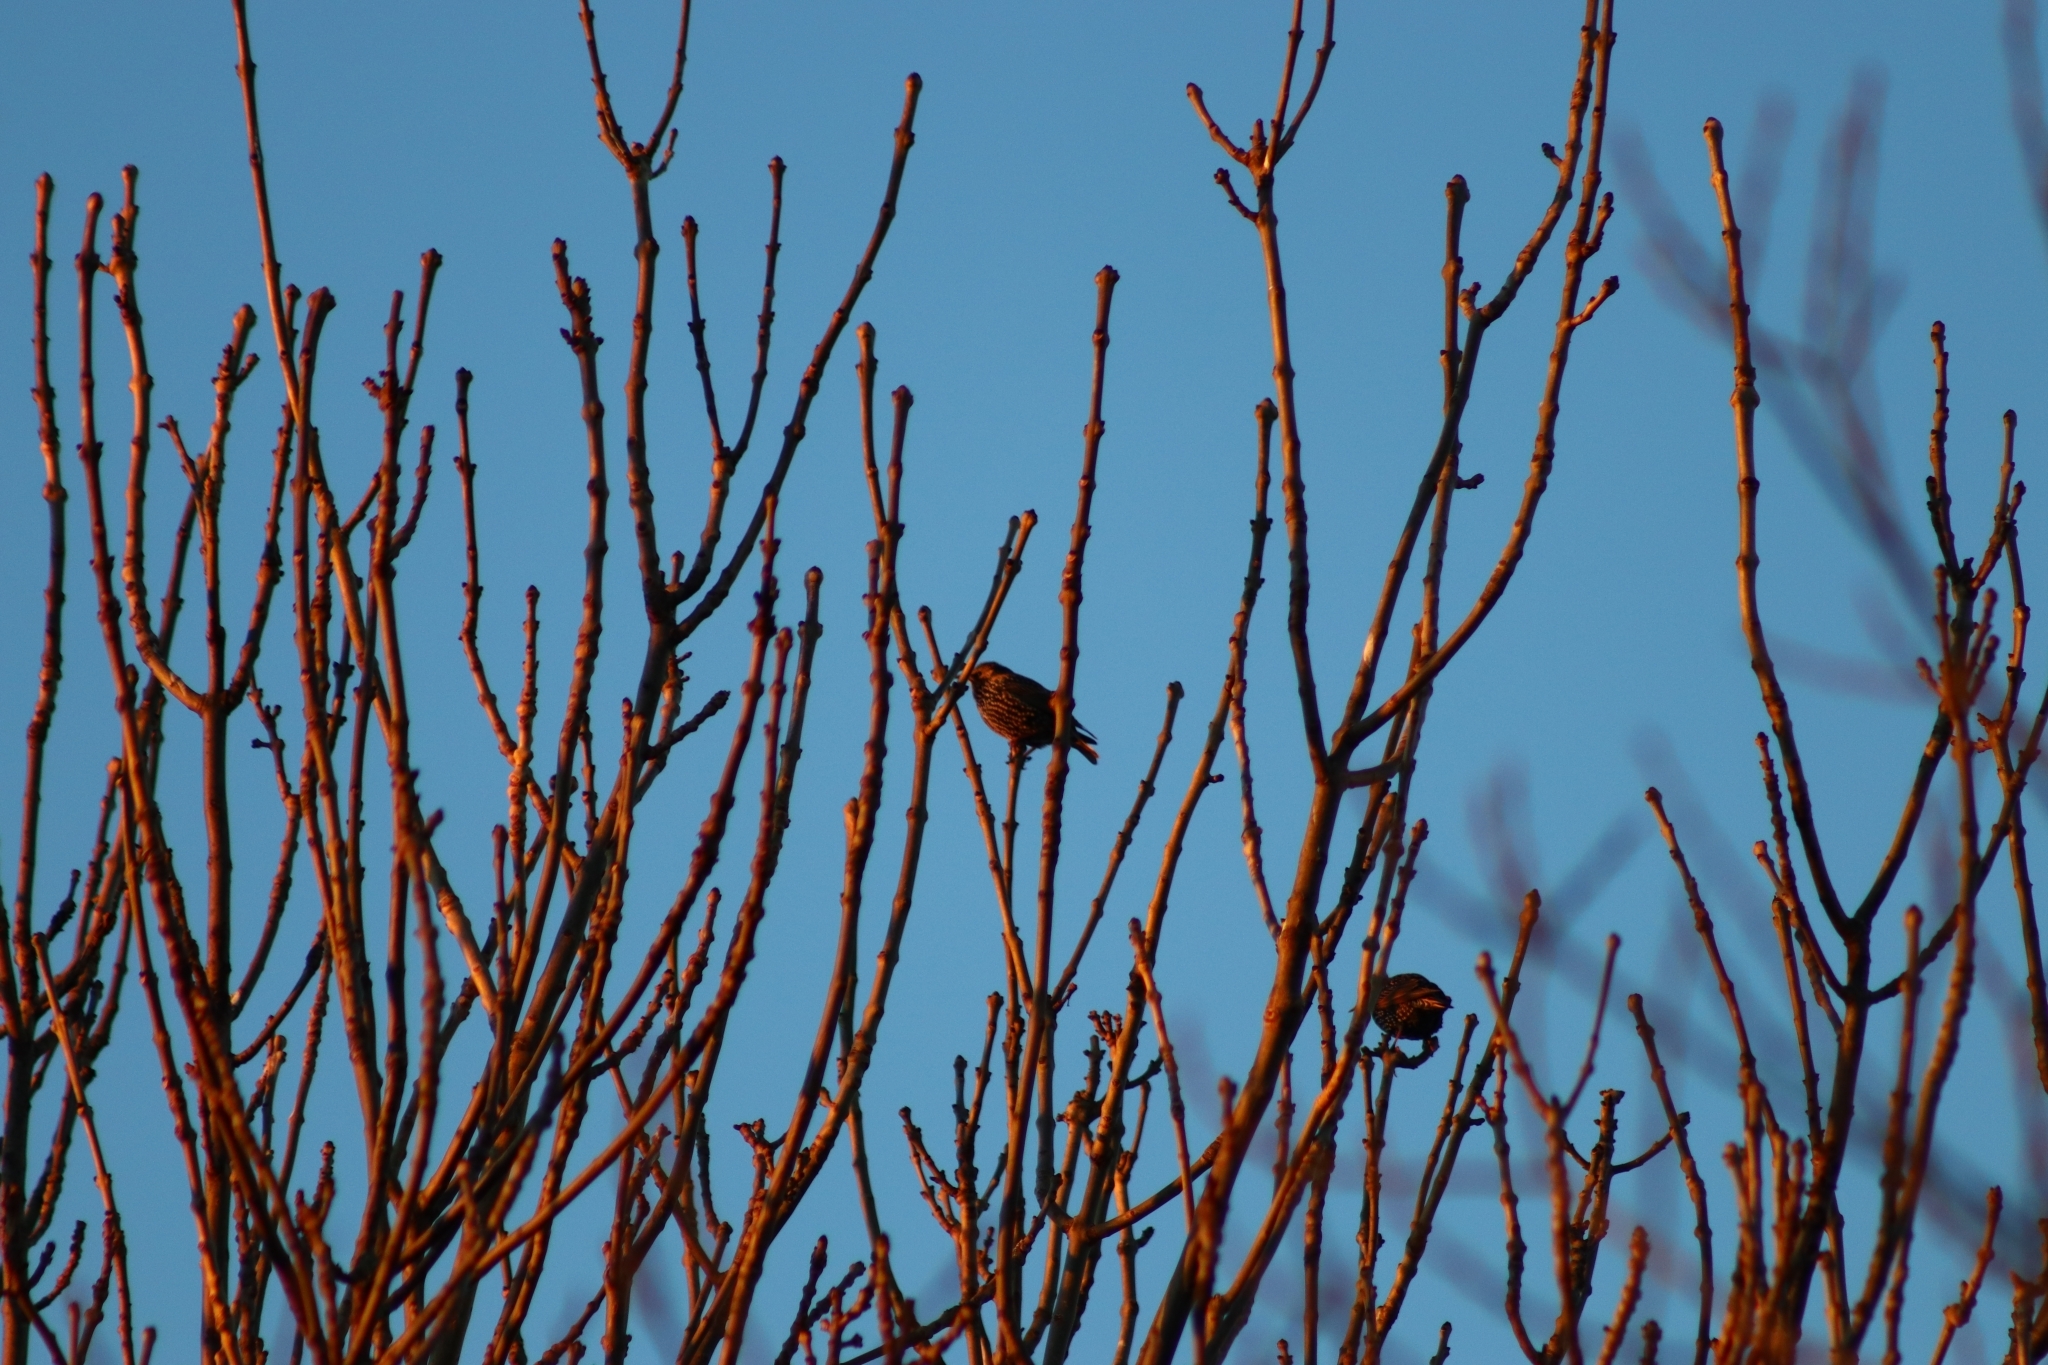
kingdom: Animalia
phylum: Chordata
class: Aves
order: Passeriformes
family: Sturnidae
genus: Sturnus
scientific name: Sturnus vulgaris
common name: Common starling
